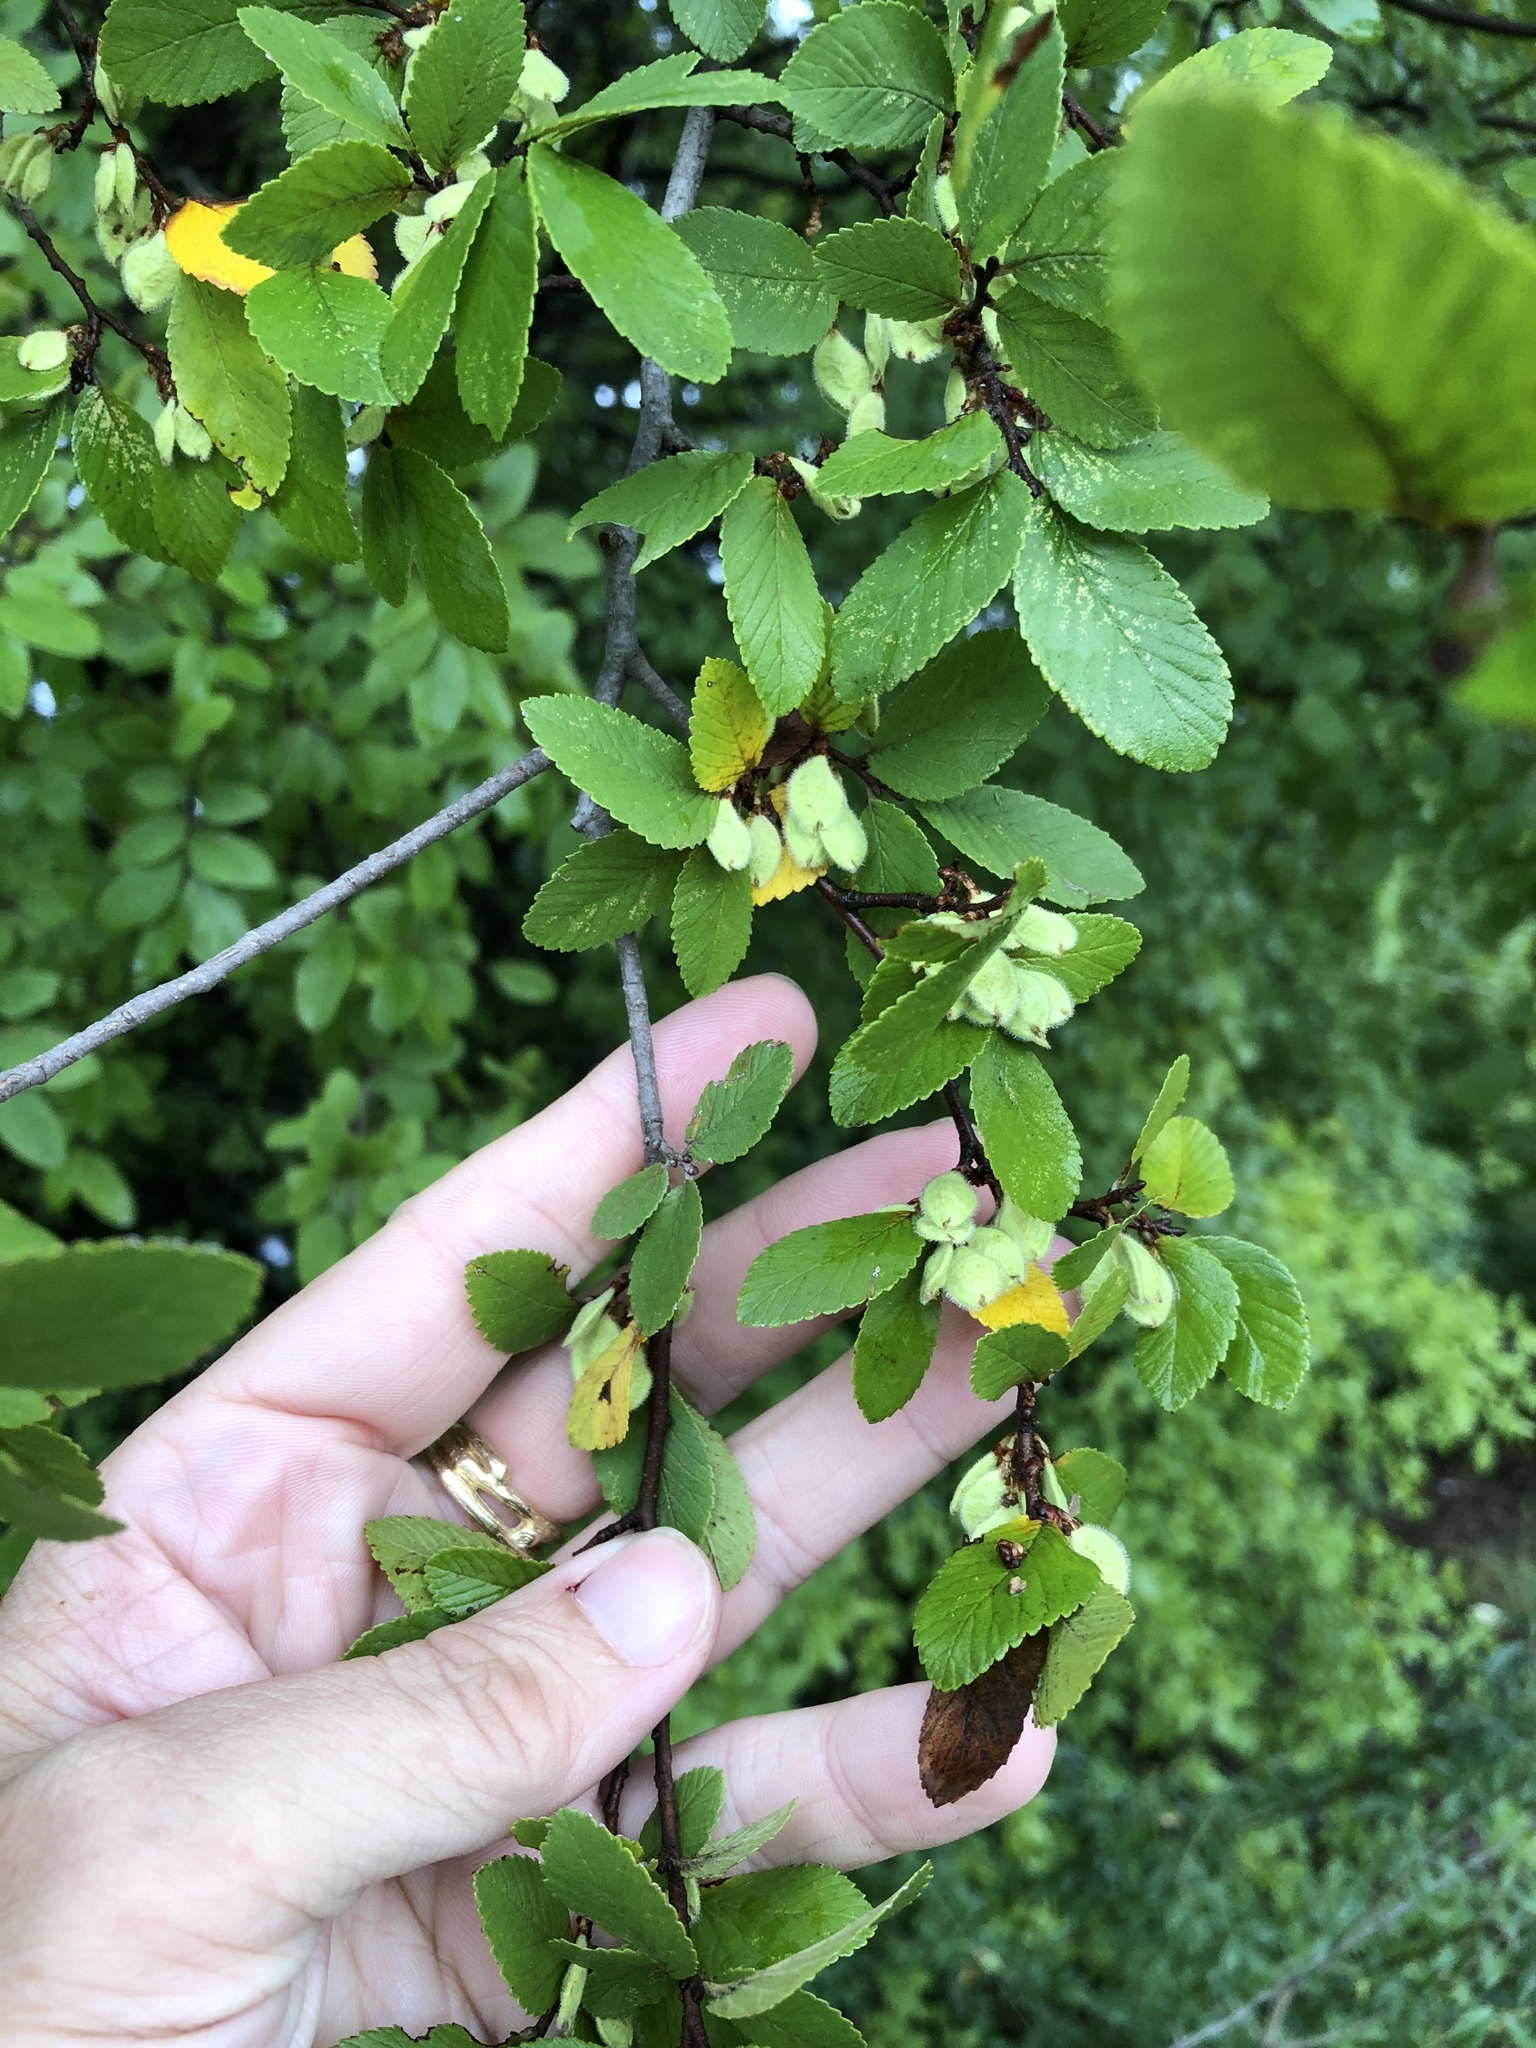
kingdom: Plantae
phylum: Tracheophyta
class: Magnoliopsida
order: Rosales
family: Ulmaceae
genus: Ulmus
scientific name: Ulmus crassifolia
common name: Basket elm
